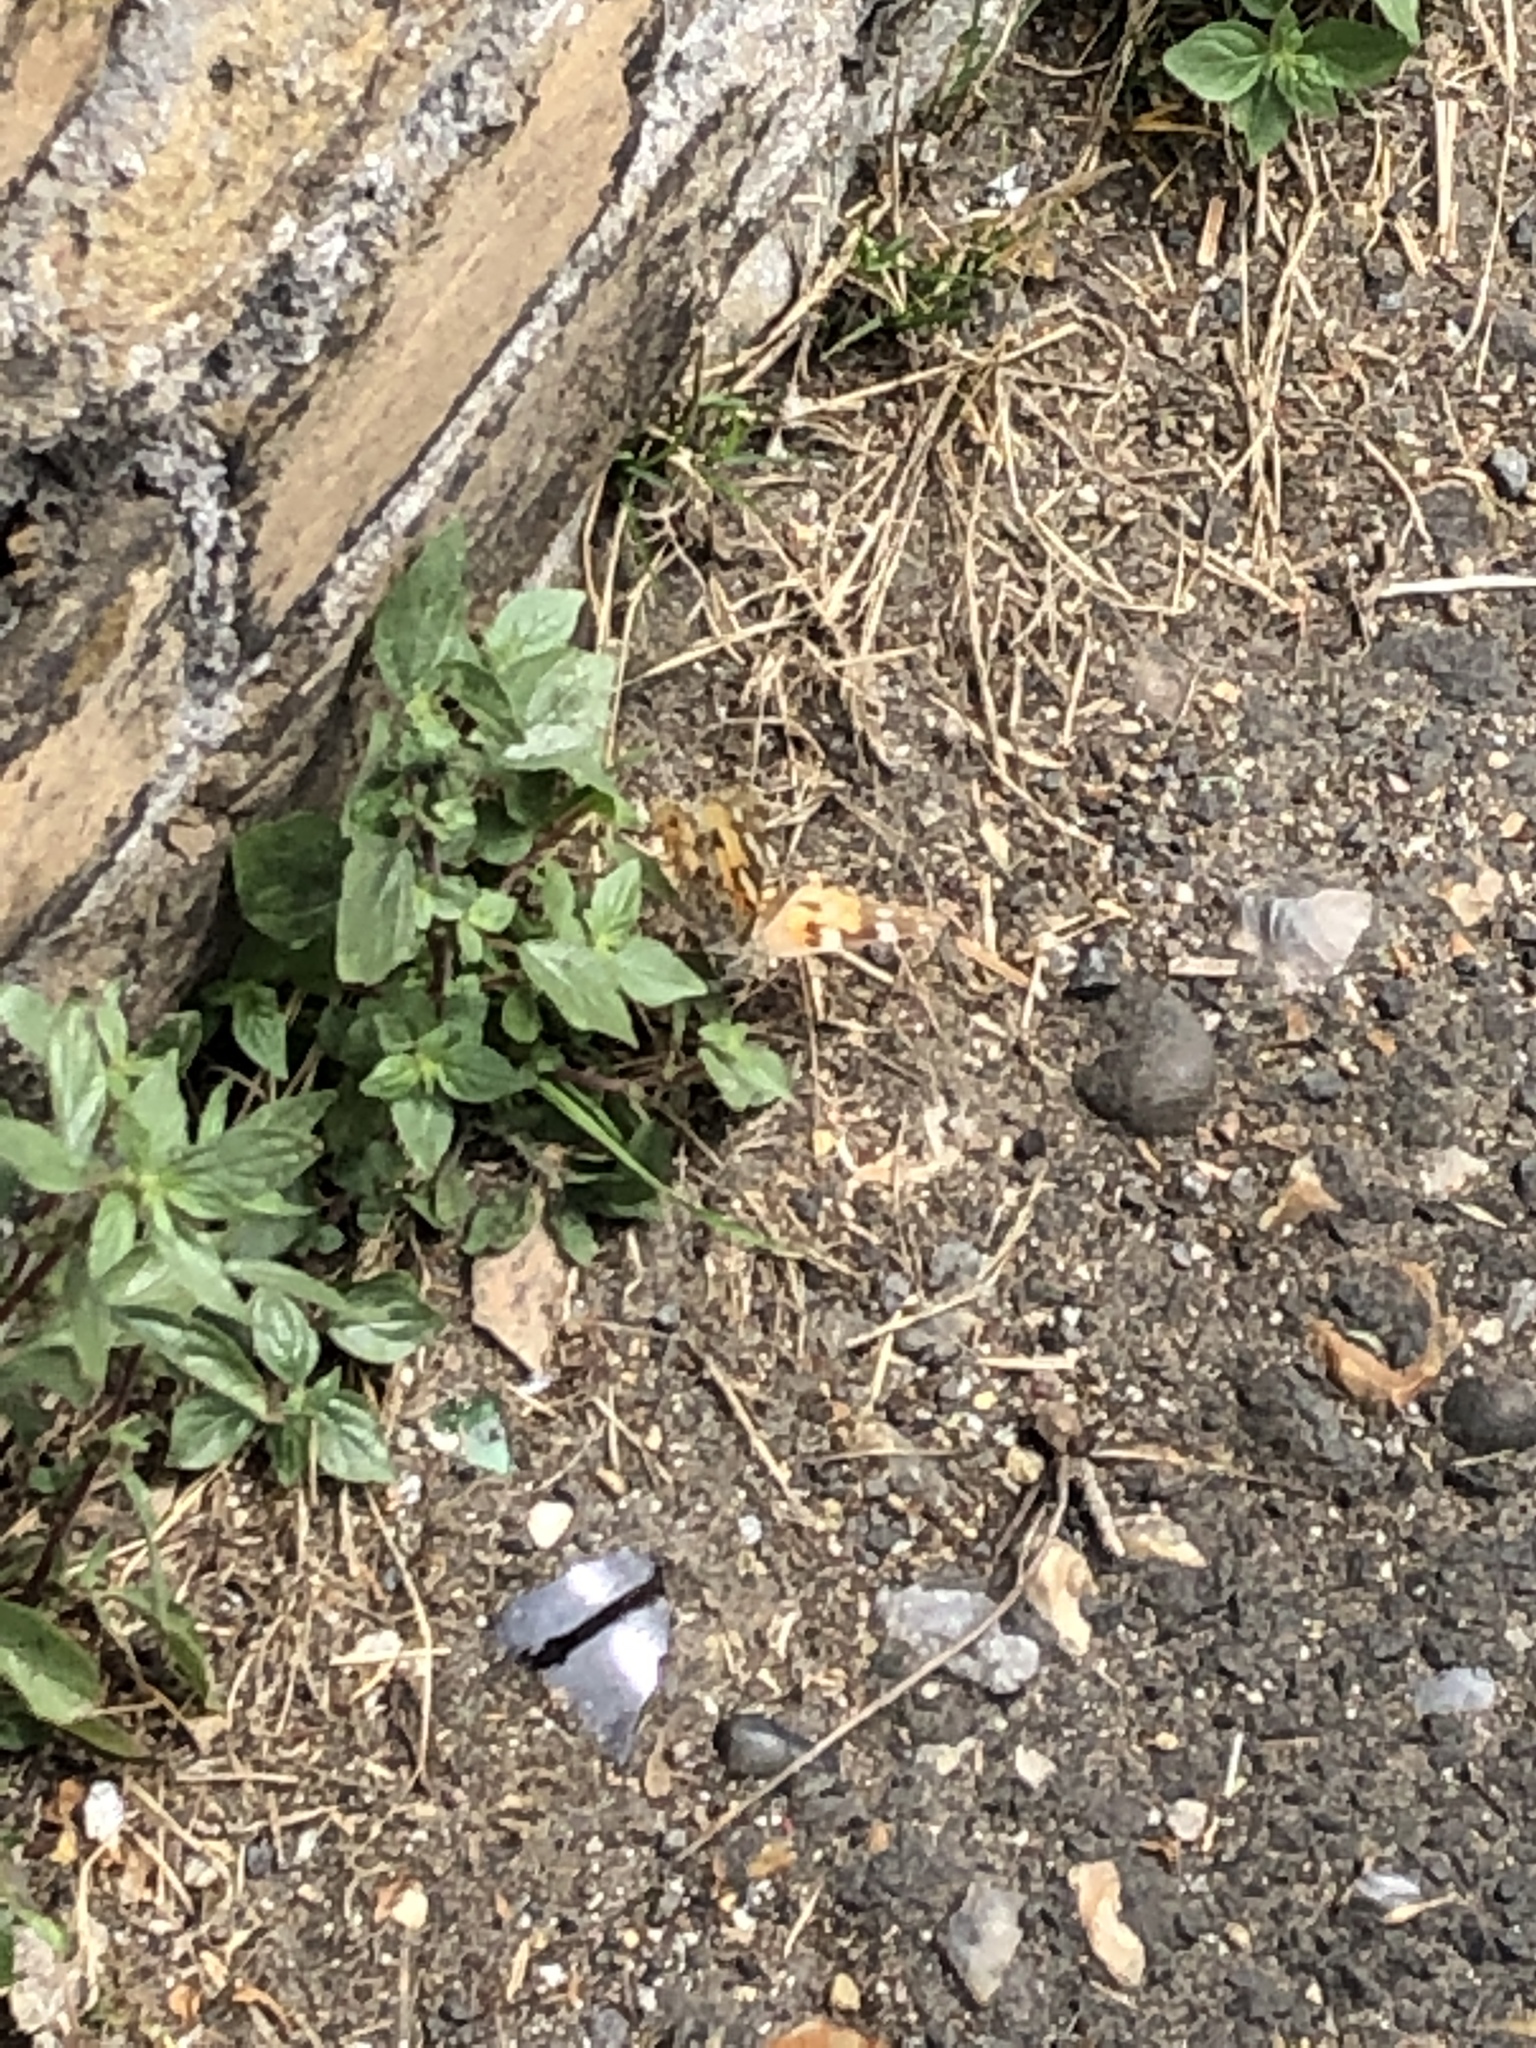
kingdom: Animalia
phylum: Arthropoda
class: Insecta
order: Lepidoptera
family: Nymphalidae
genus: Vanessa
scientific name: Vanessa cardui
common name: Painted lady
